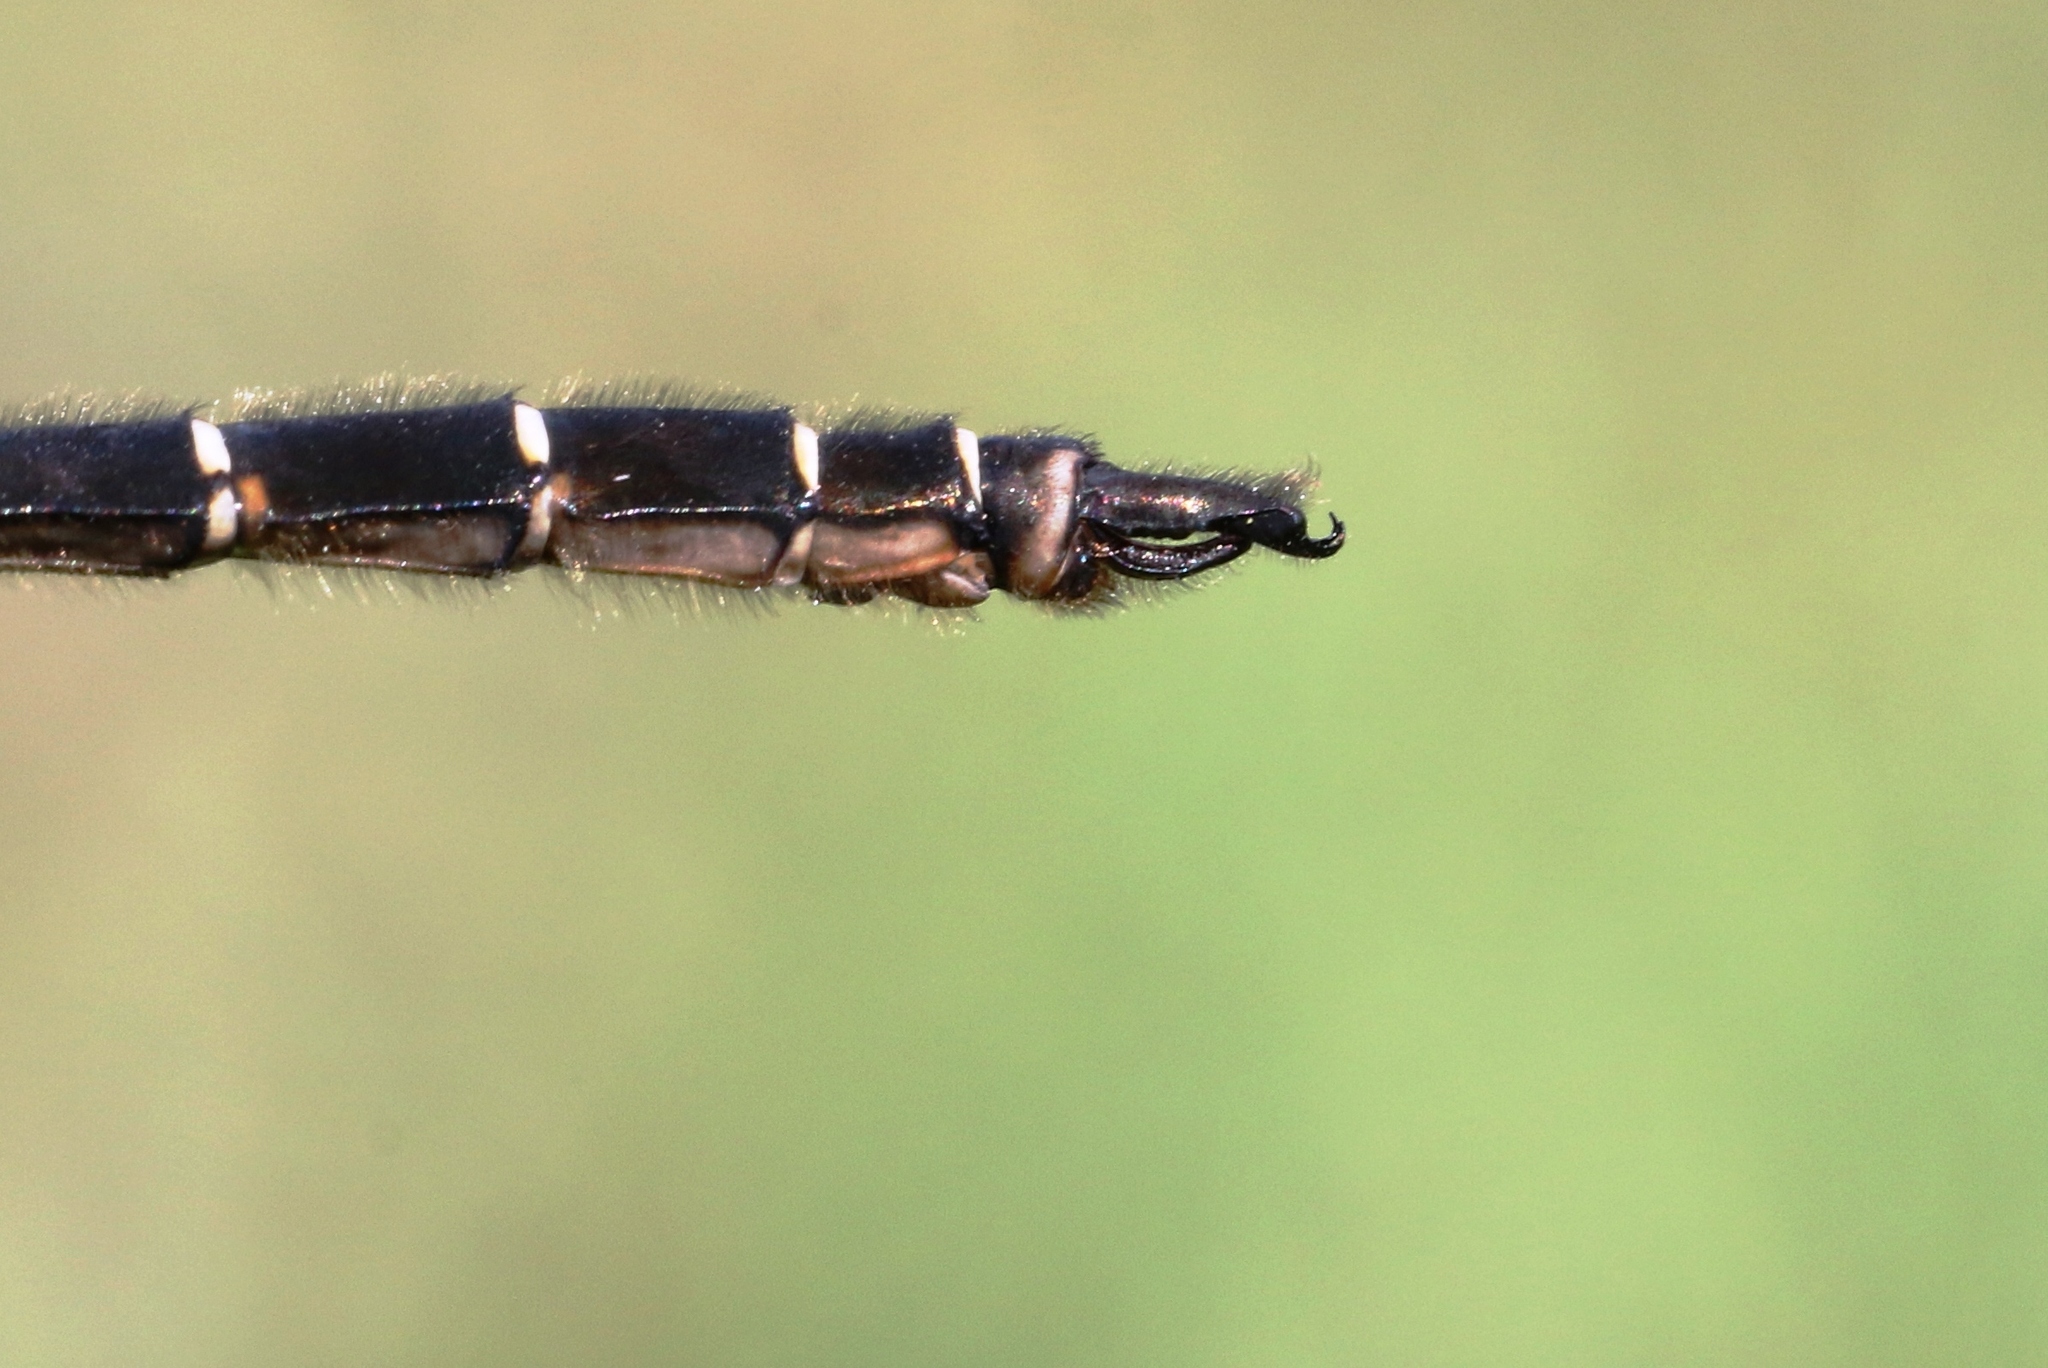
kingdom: Animalia
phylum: Arthropoda
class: Insecta
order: Odonata
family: Corduliidae
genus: Somatochlora
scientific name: Somatochlora albicincta
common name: Ringed emerald
